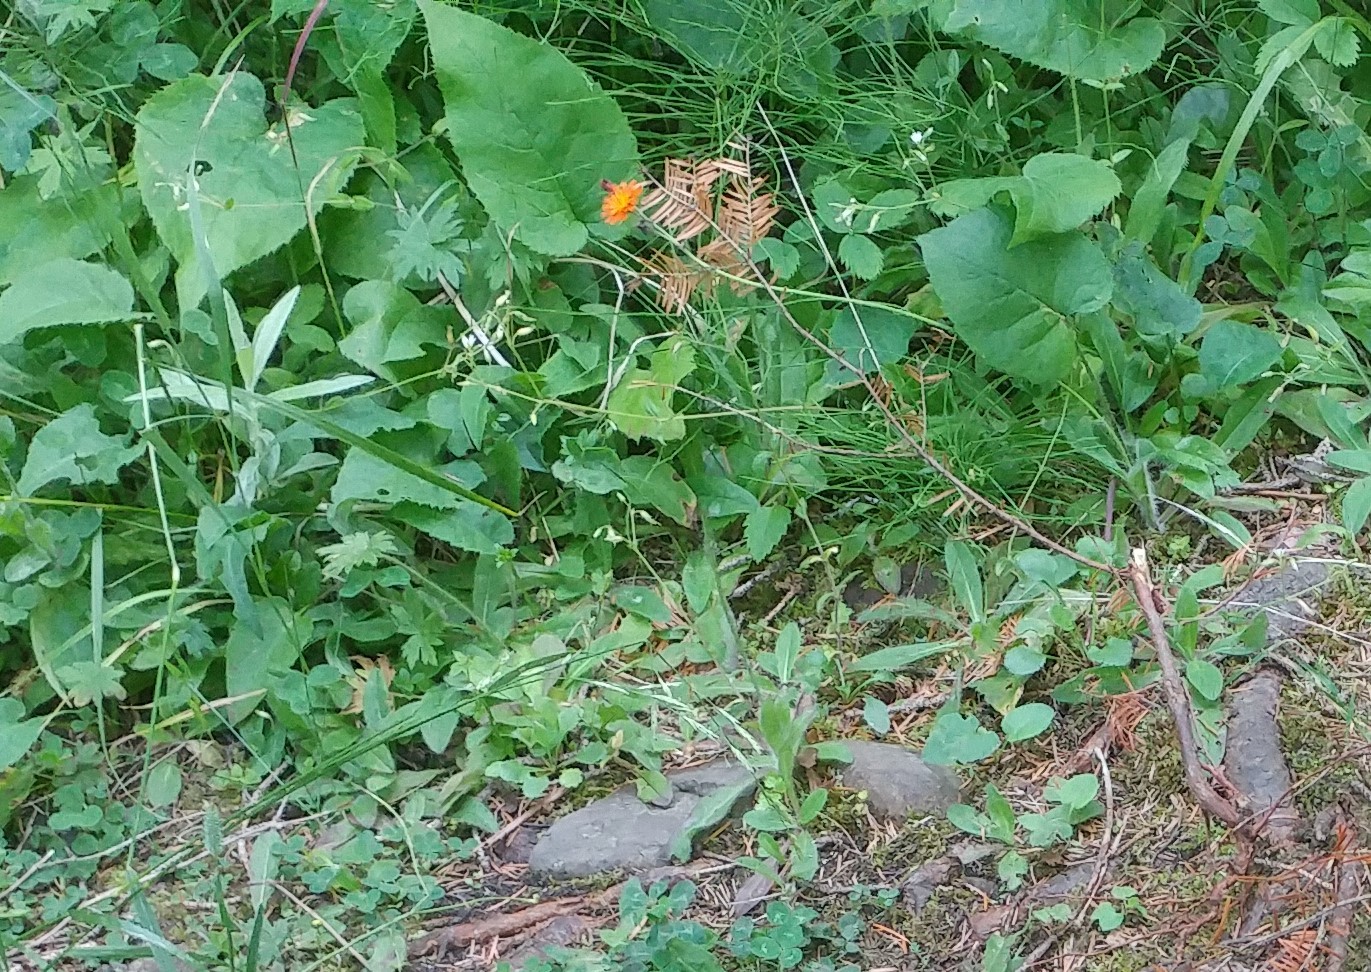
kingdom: Plantae
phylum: Tracheophyta
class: Magnoliopsida
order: Asterales
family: Asteraceae
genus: Pilosella
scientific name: Pilosella aurantiaca
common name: Fox-and-cubs
